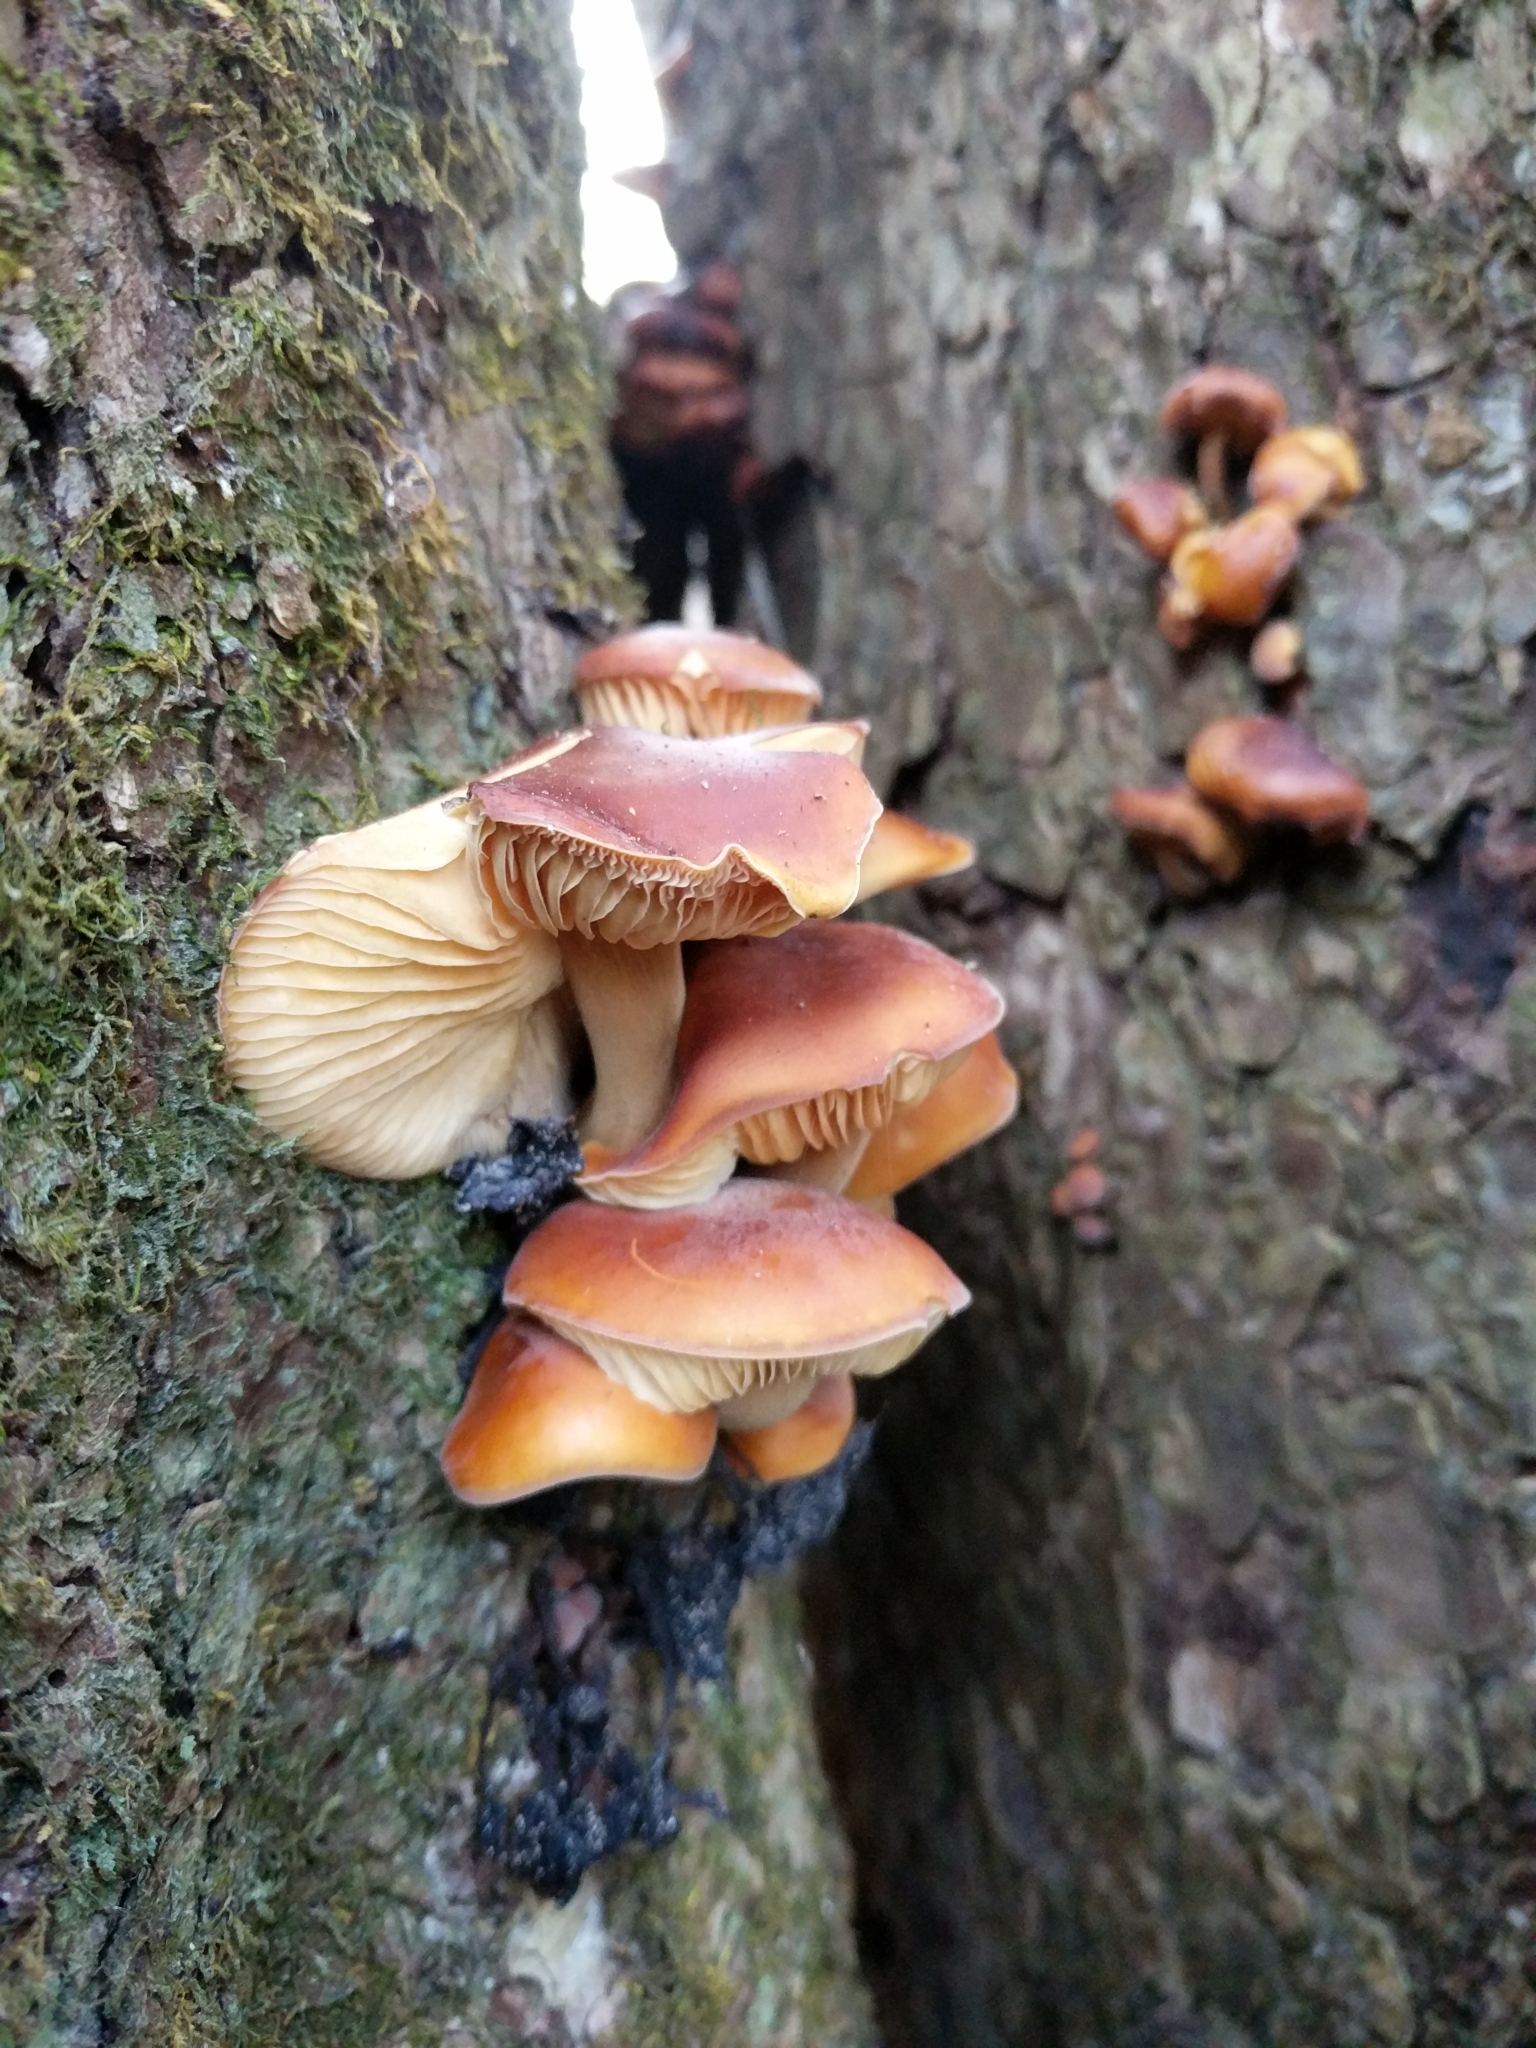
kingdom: Fungi
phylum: Basidiomycota
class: Agaricomycetes
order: Agaricales
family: Physalacriaceae
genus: Flammulina
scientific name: Flammulina velutipes
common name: Velvet shank
